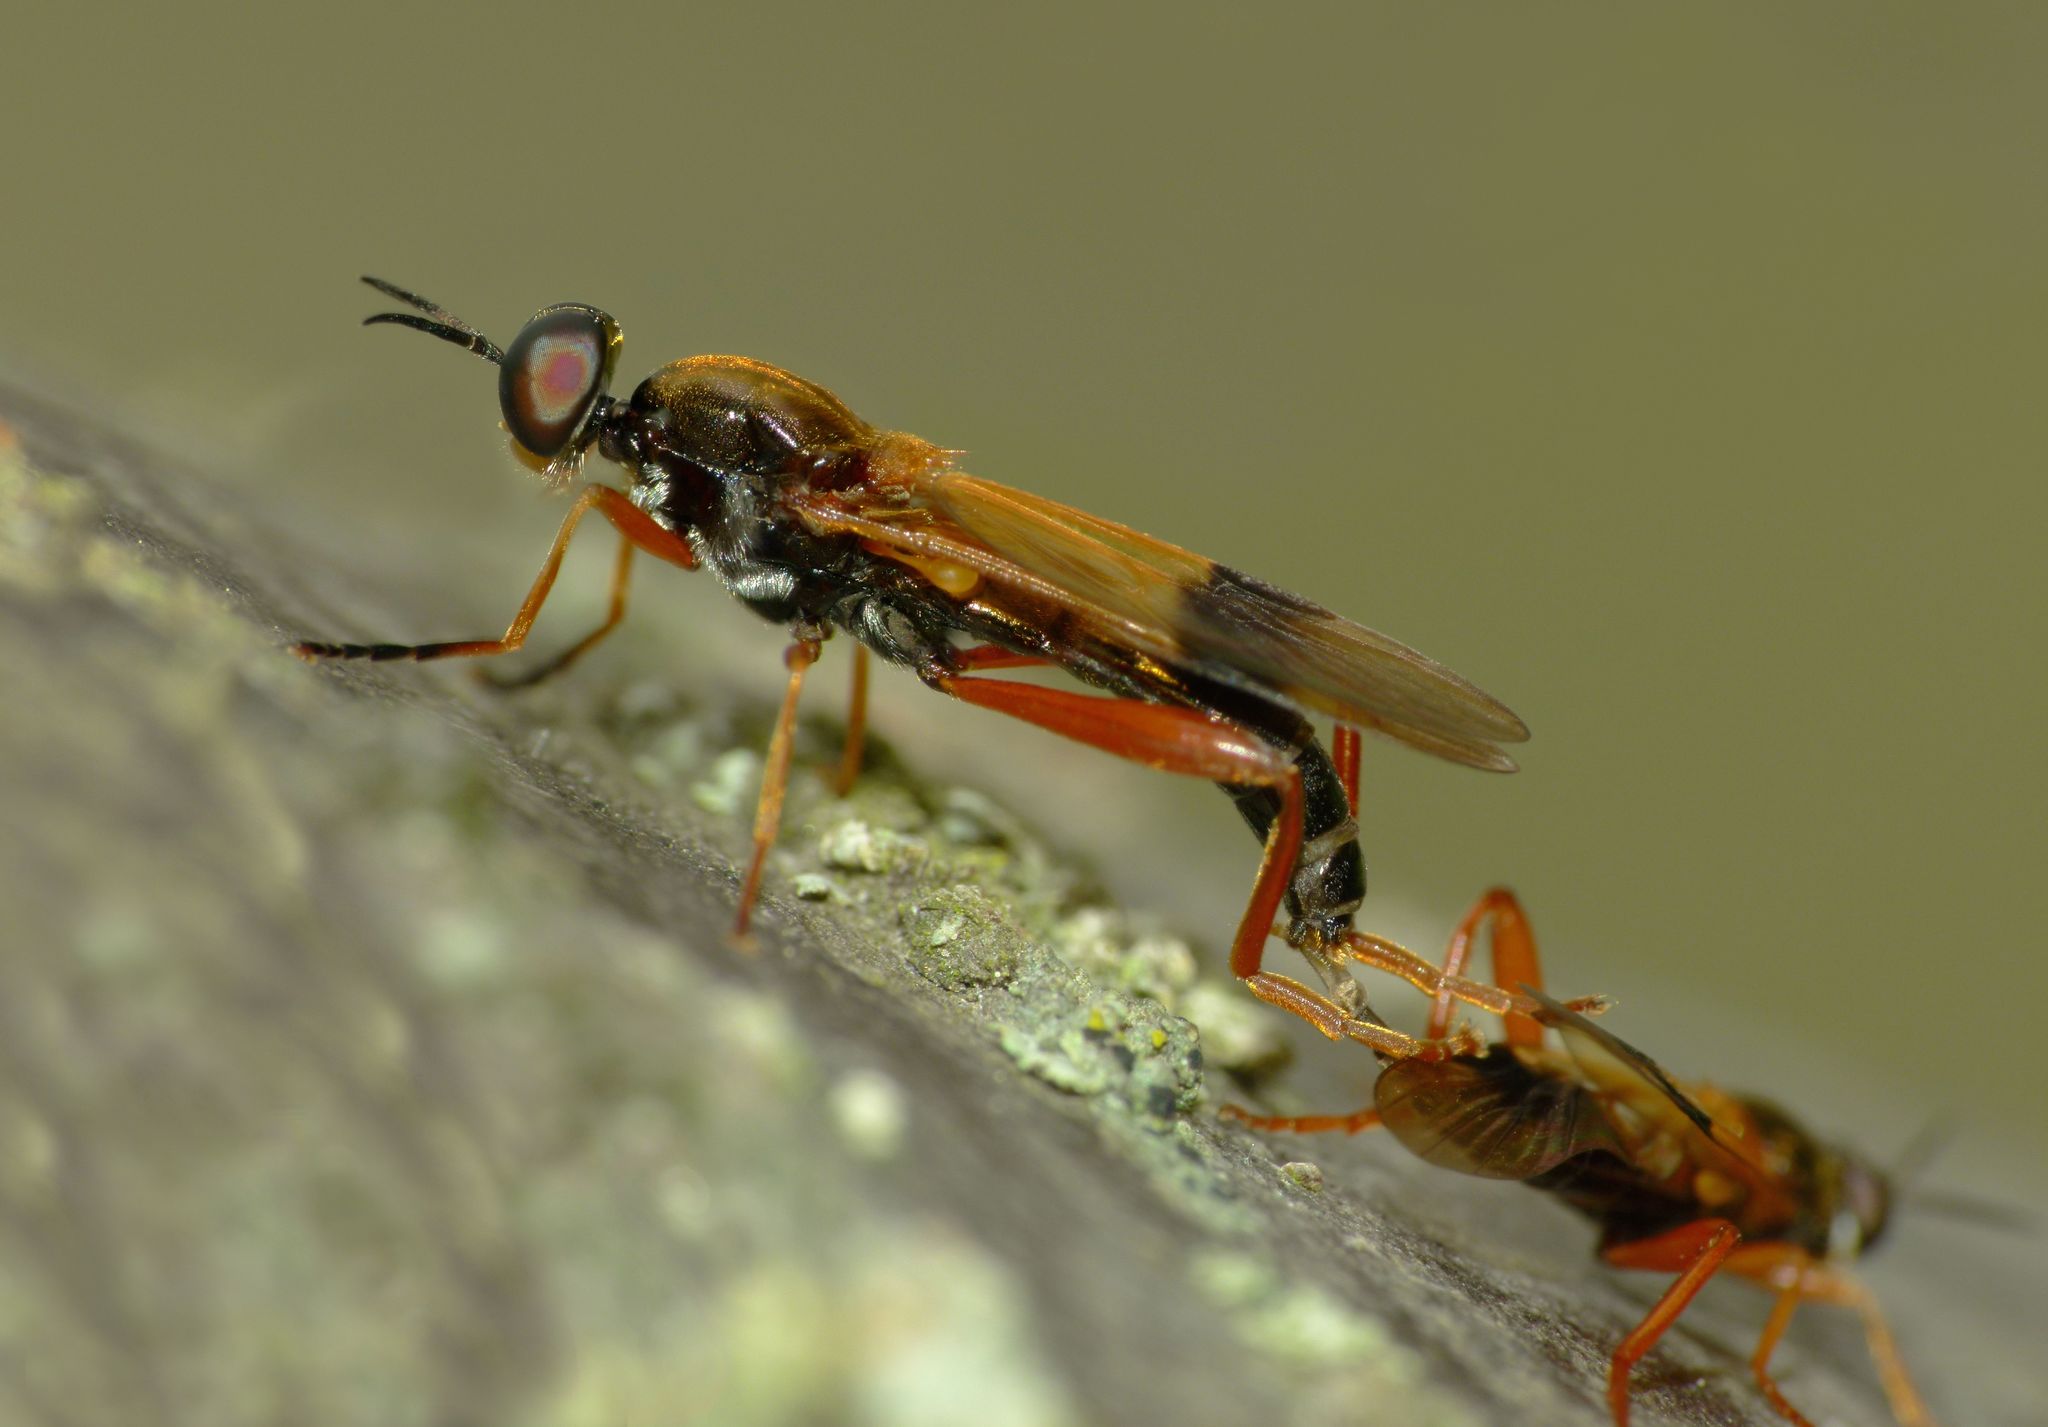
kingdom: Animalia
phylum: Arthropoda
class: Insecta
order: Diptera
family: Stratiomyidae
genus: Benhamyia
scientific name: Benhamyia apicalis
